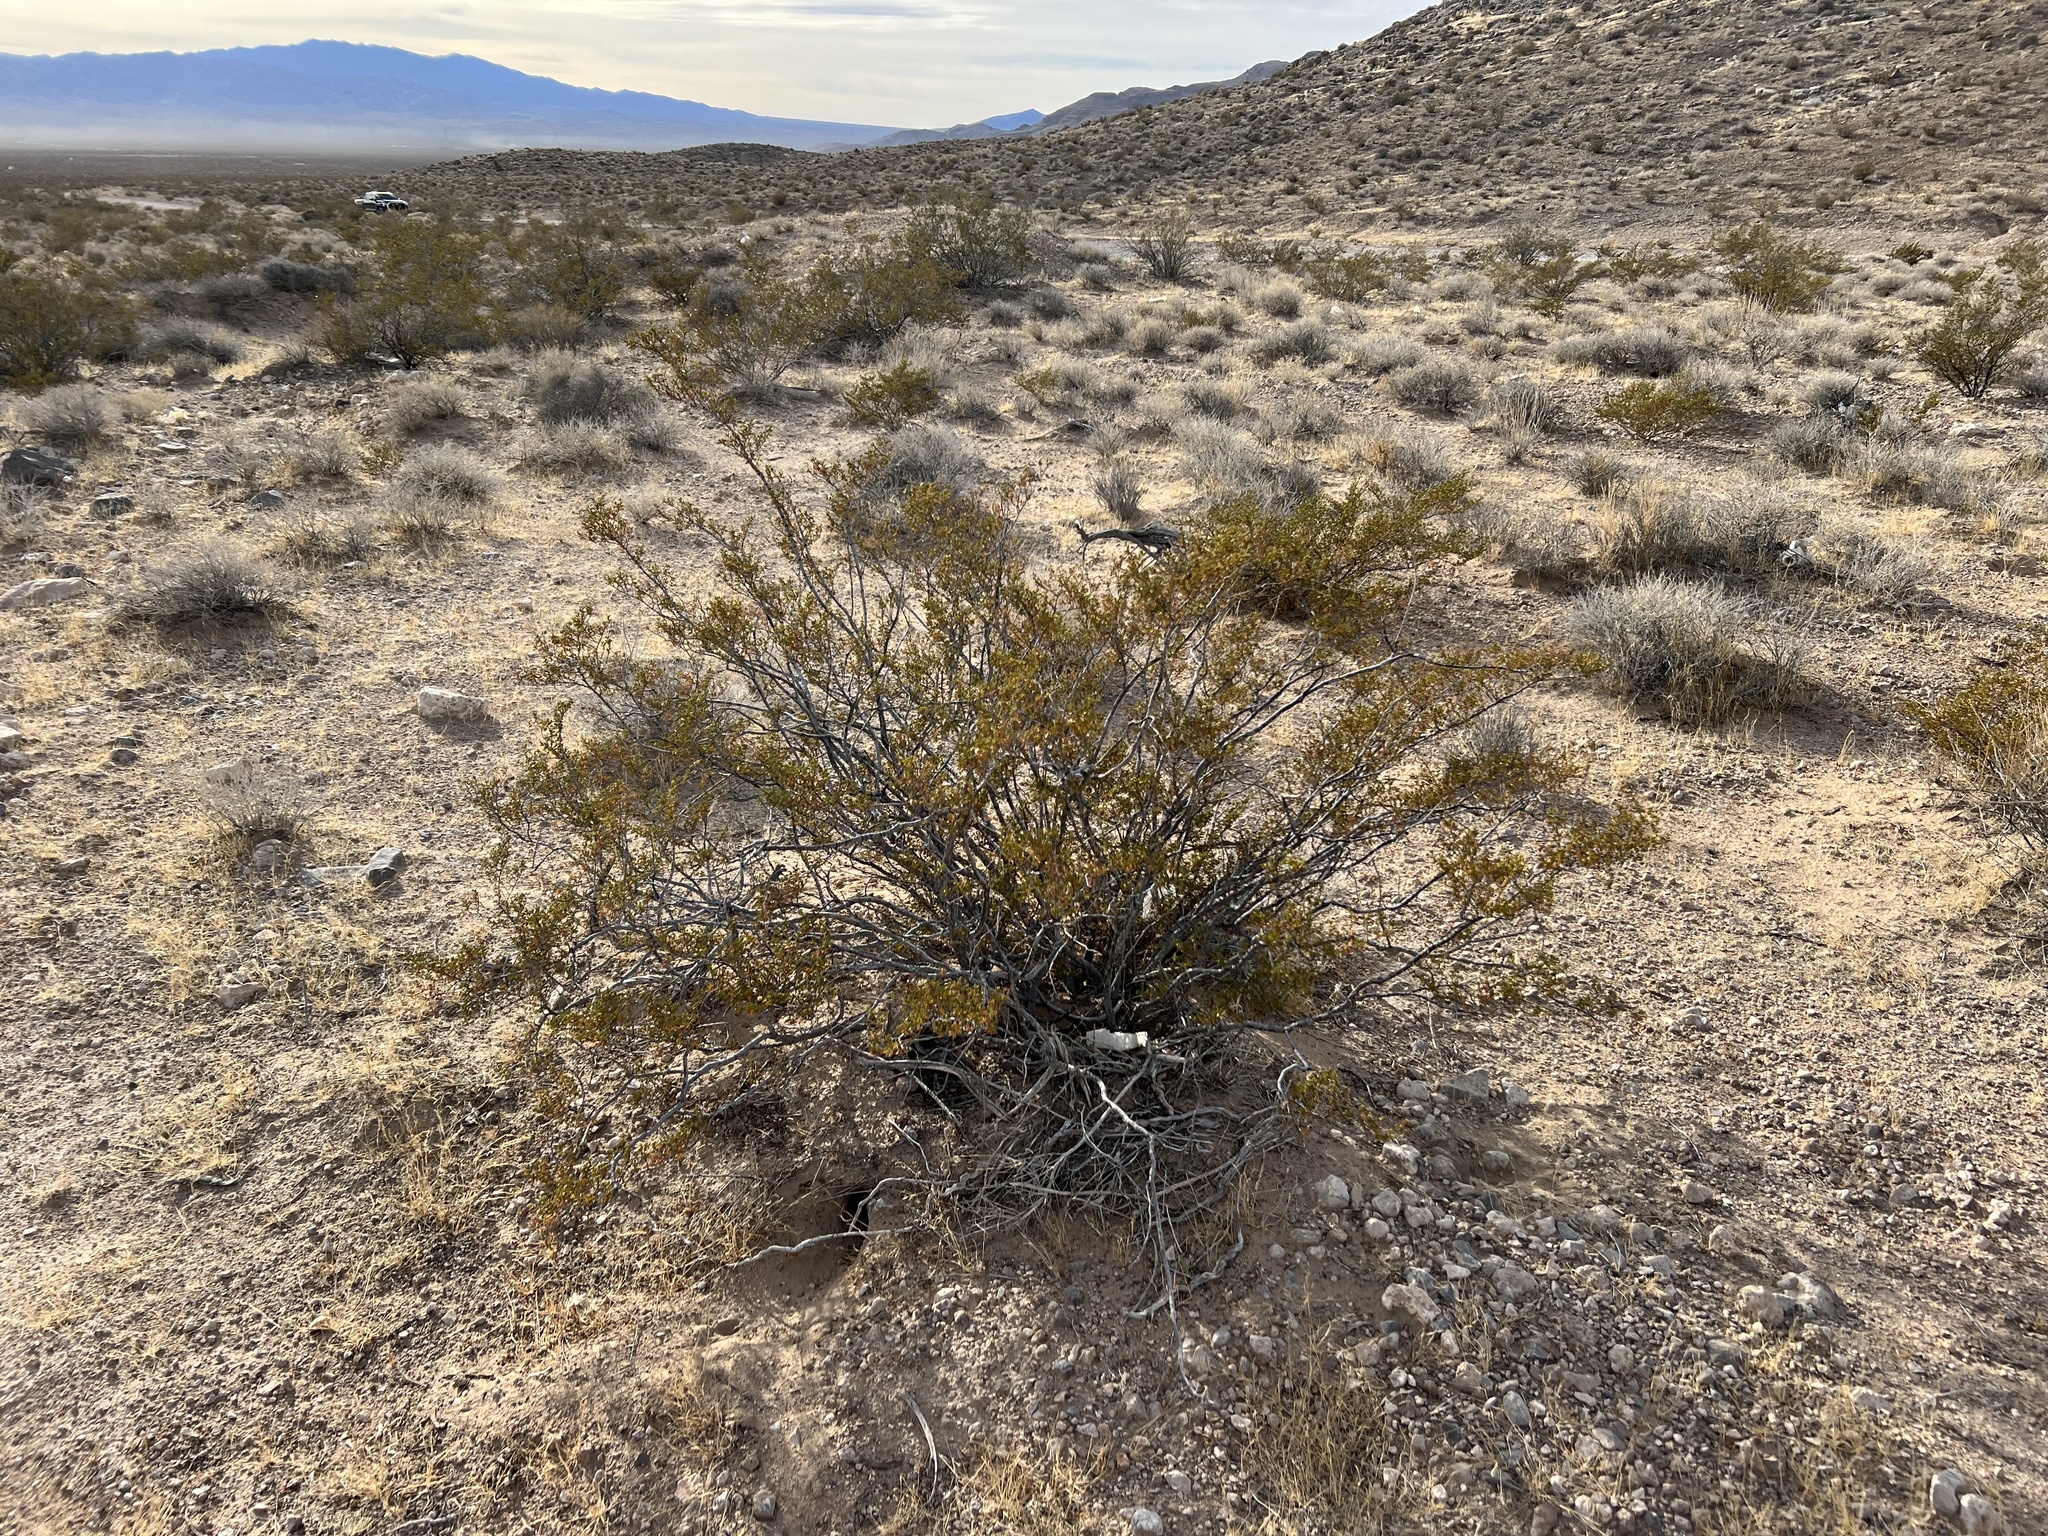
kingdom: Plantae
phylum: Tracheophyta
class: Magnoliopsida
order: Zygophyllales
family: Zygophyllaceae
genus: Larrea
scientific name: Larrea tridentata
